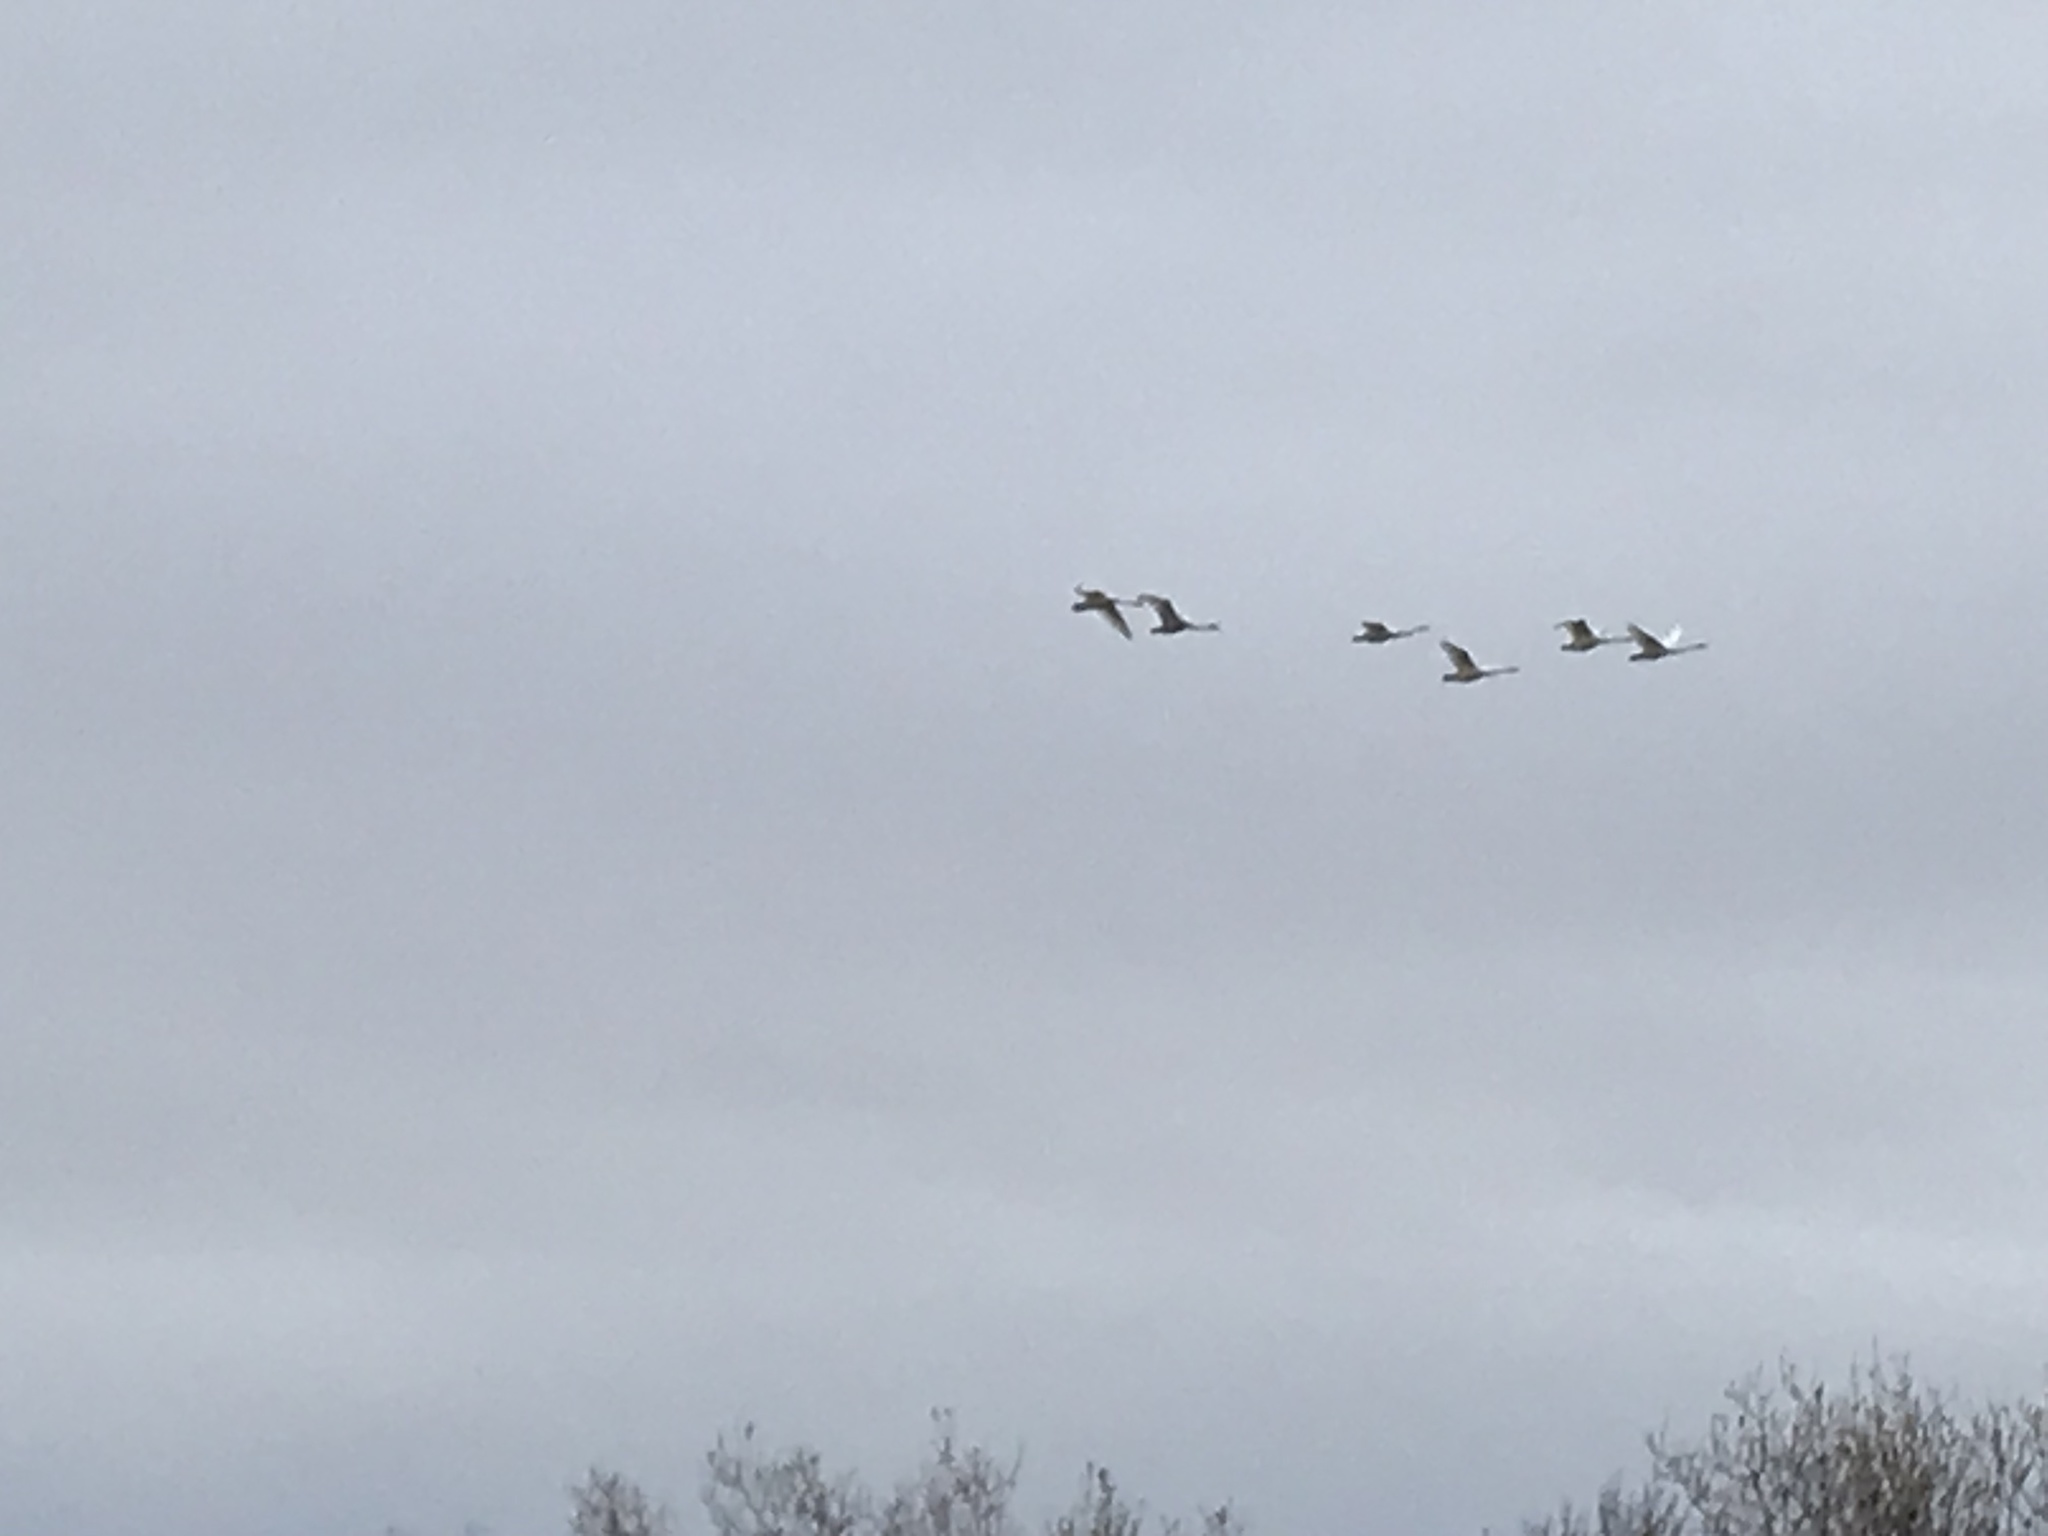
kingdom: Animalia
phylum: Chordata
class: Aves
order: Anseriformes
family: Anatidae
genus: Cygnus
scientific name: Cygnus cygnus
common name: Whooper swan
